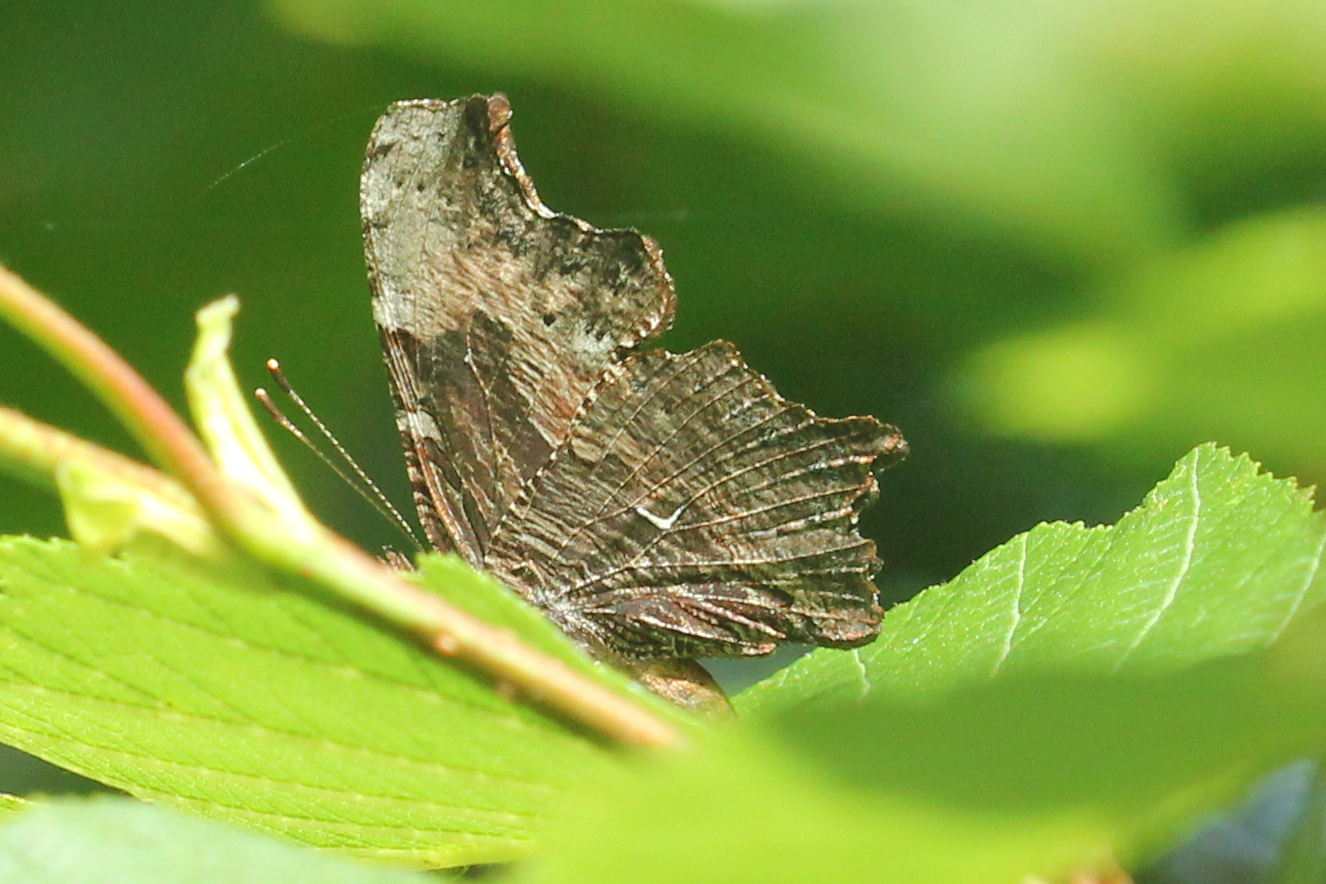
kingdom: Animalia
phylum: Arthropoda
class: Insecta
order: Lepidoptera
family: Nymphalidae
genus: Polygonia
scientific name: Polygonia progne
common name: Gray comma
